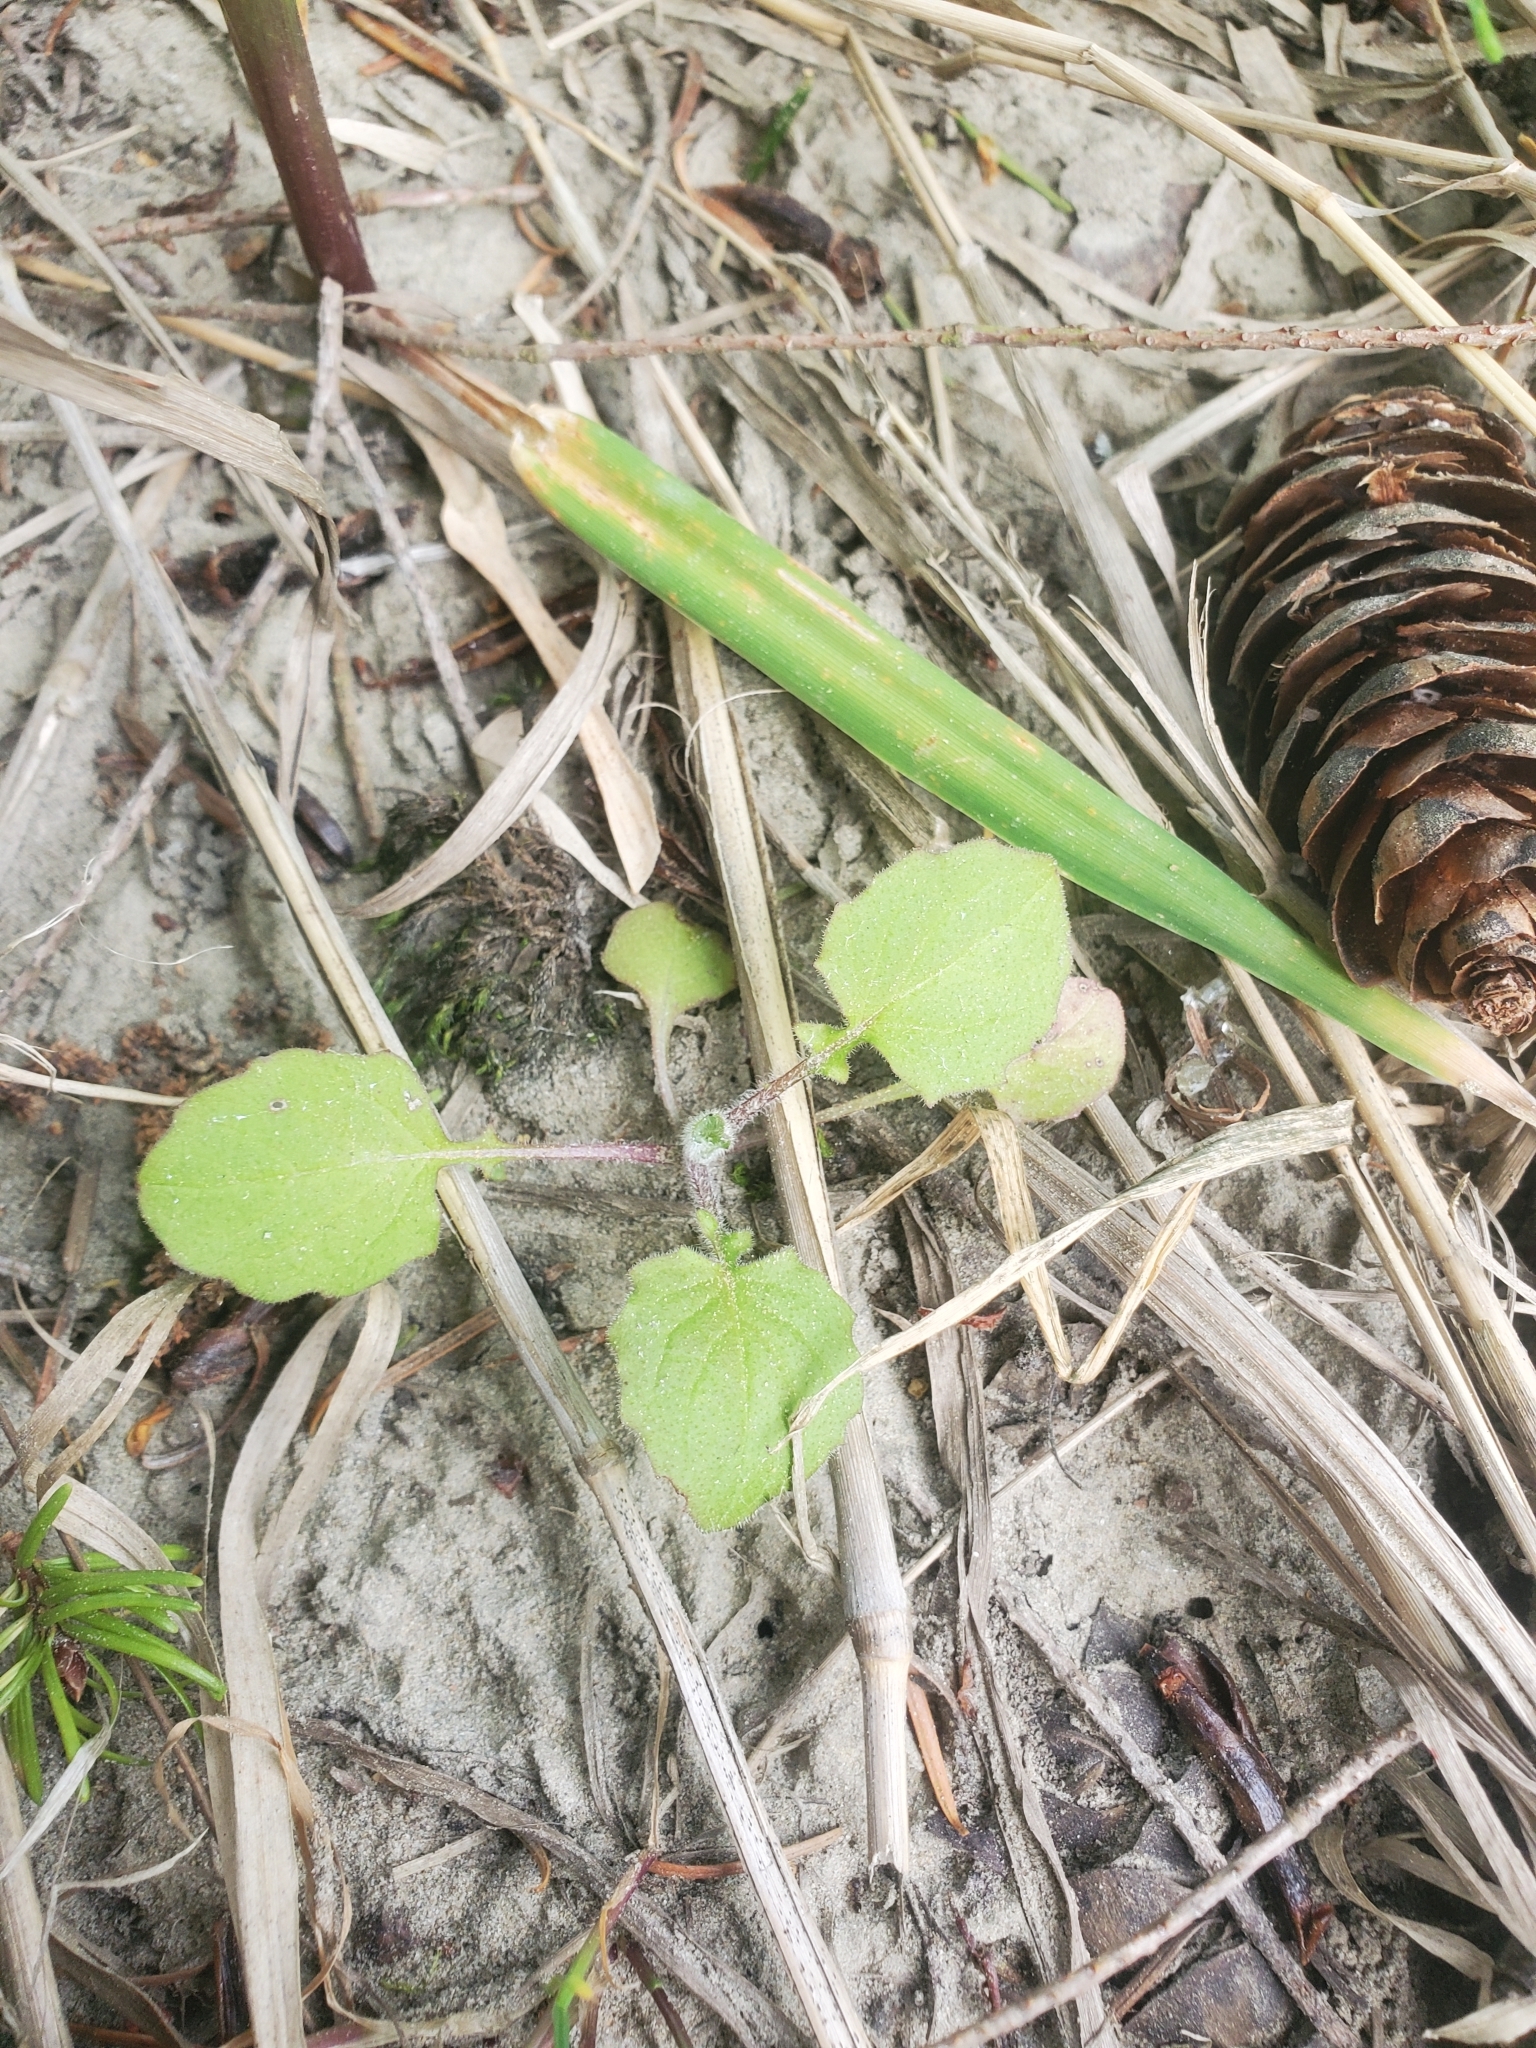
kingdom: Plantae
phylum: Tracheophyta
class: Magnoliopsida
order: Asterales
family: Asteraceae
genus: Lapsana
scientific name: Lapsana communis
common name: Nipplewort
